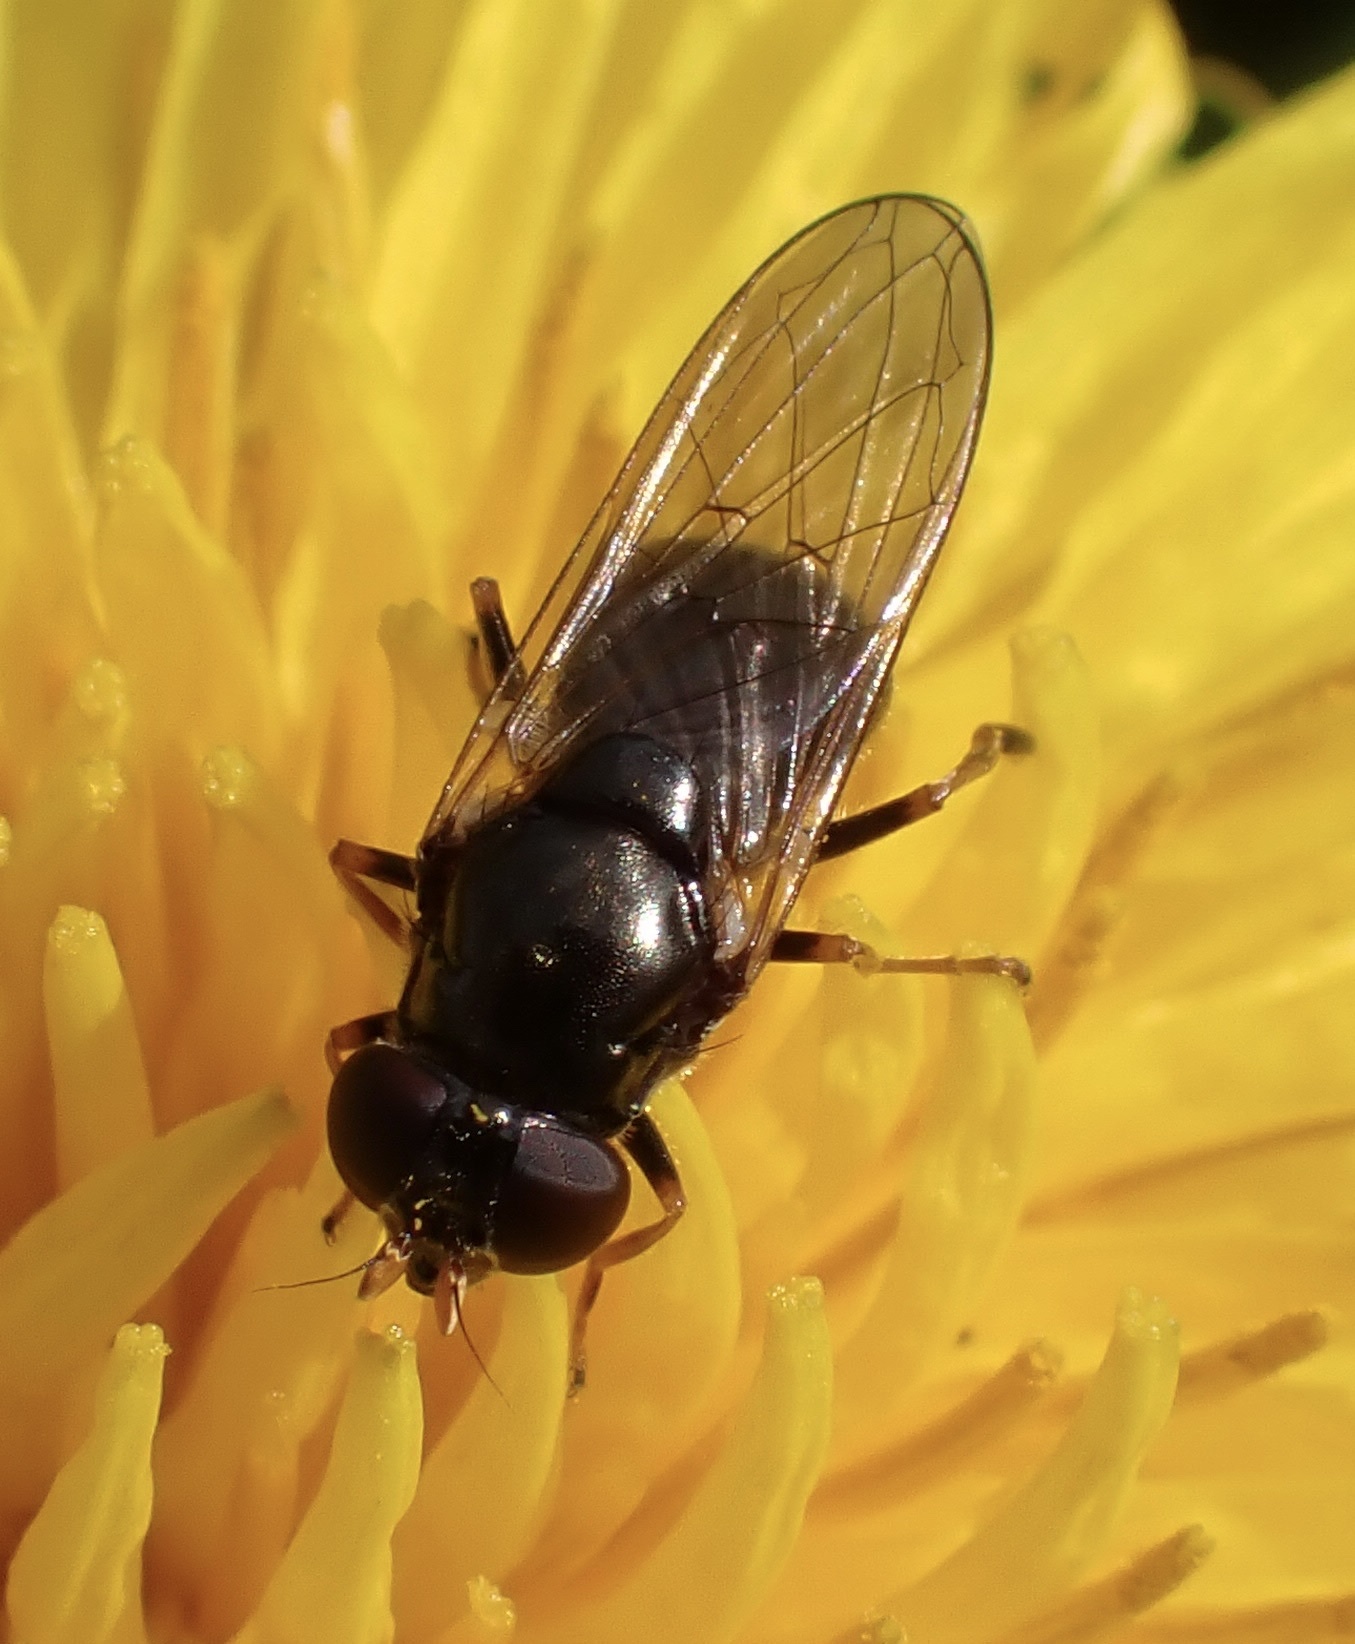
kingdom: Animalia
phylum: Arthropoda
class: Insecta
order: Diptera
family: Syrphidae
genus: Cheilosia
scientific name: Cheilosia pagana
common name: Hover fly
